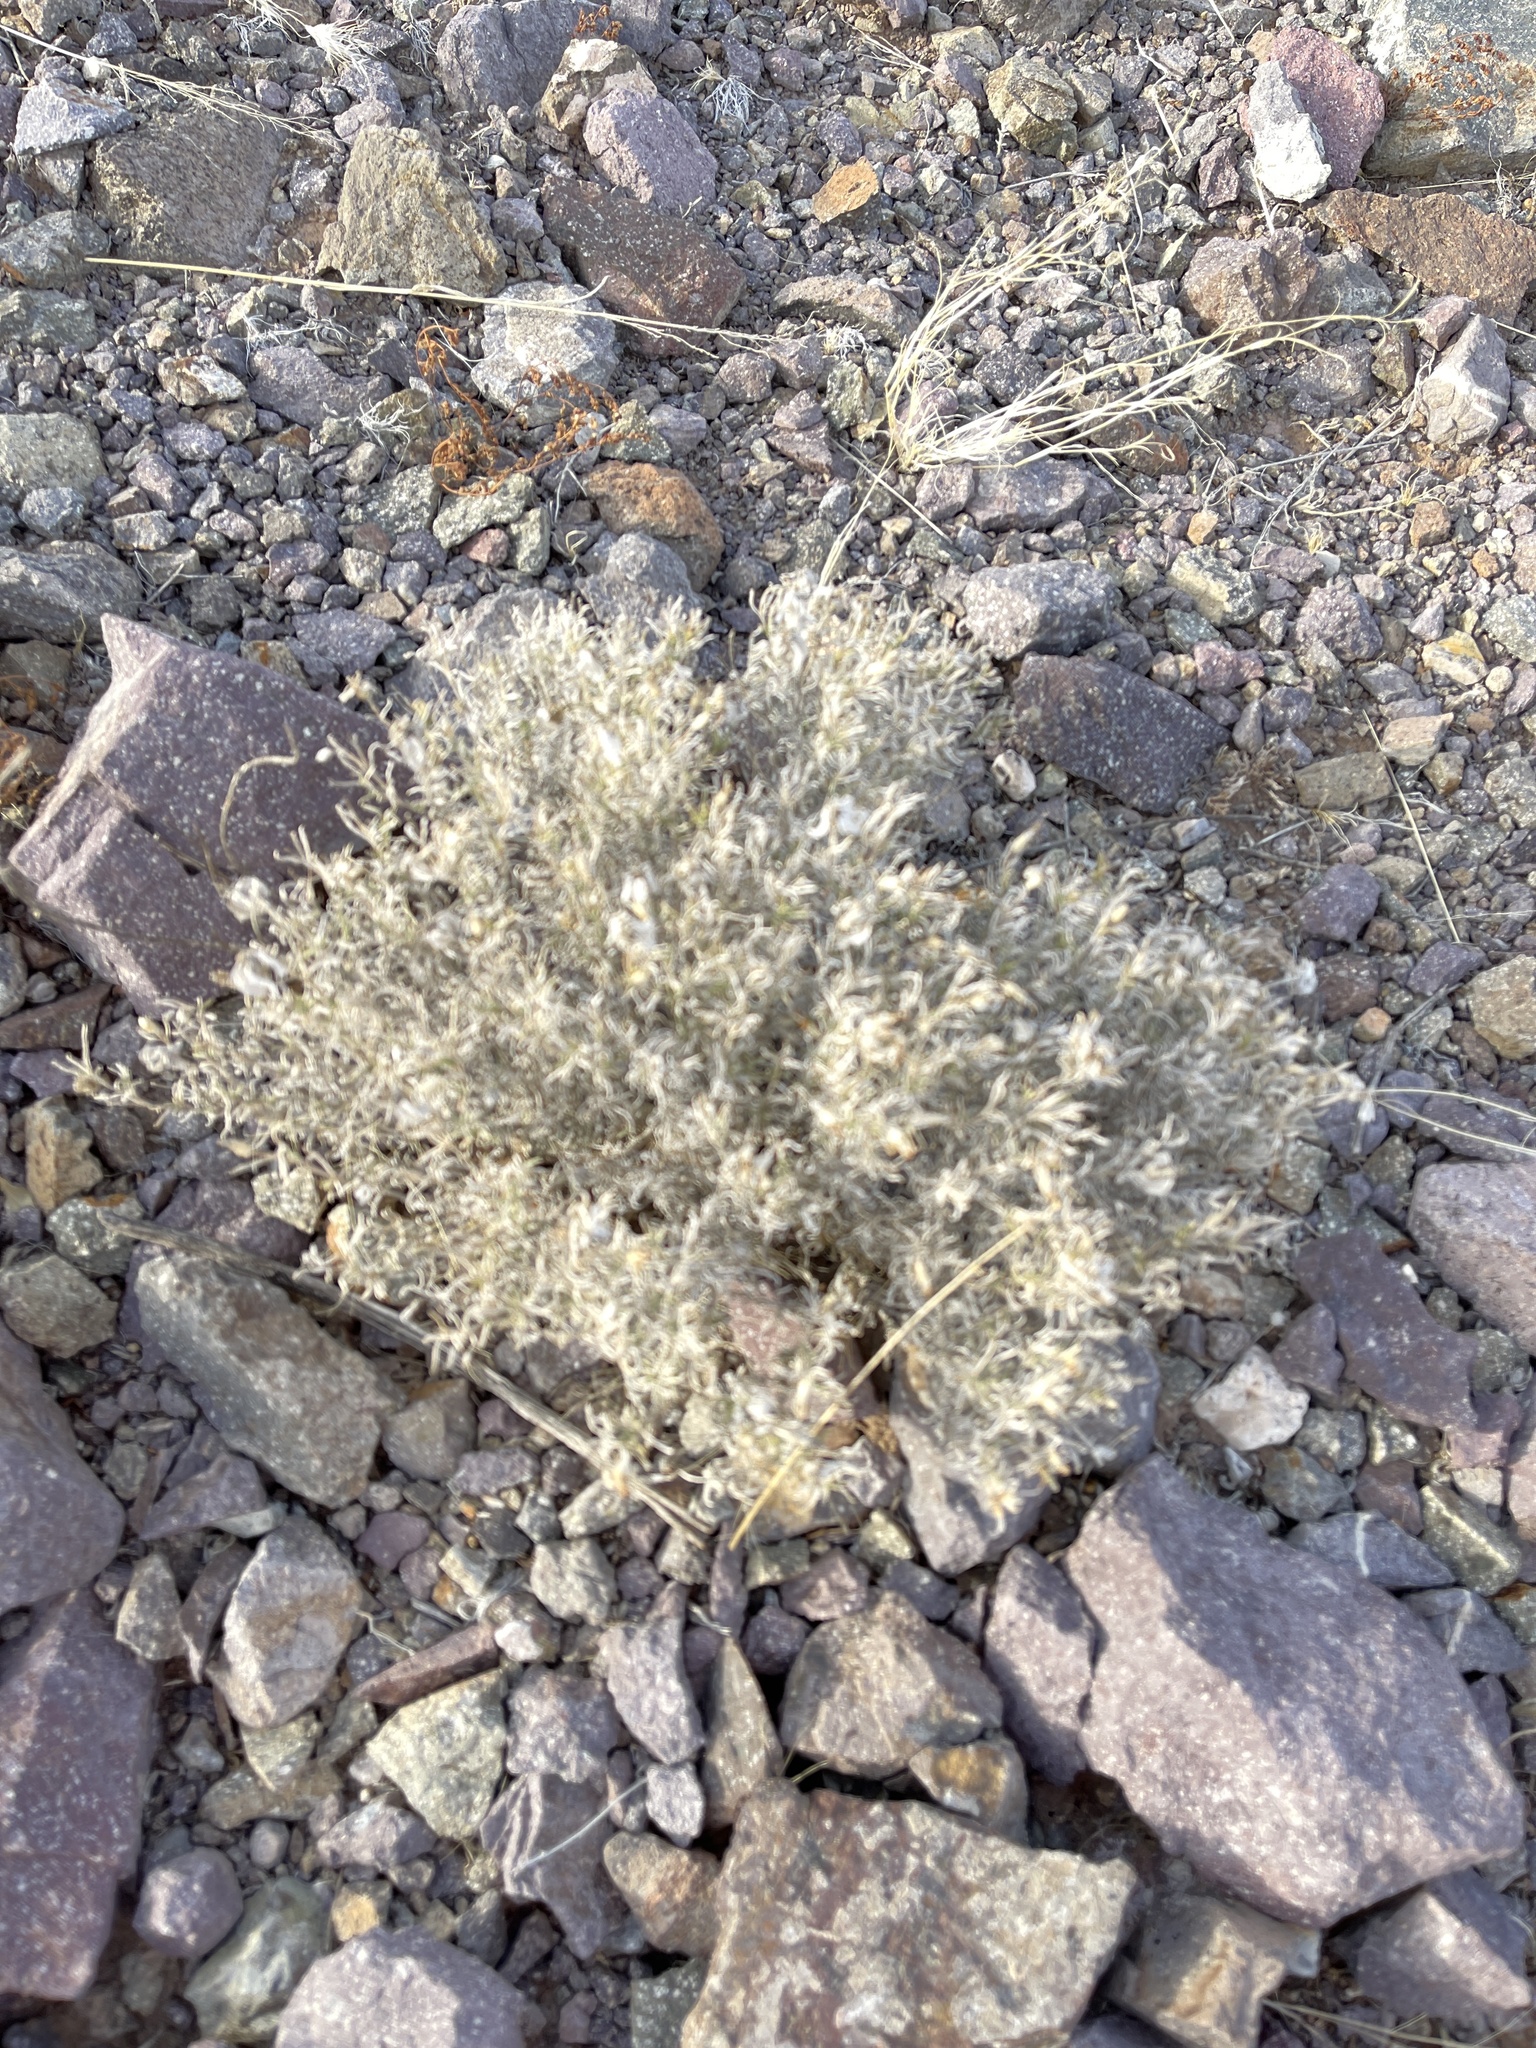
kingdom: Plantae
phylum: Tracheophyta
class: Liliopsida
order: Poales
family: Poaceae
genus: Dasyochloa
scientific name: Dasyochloa pulchella
